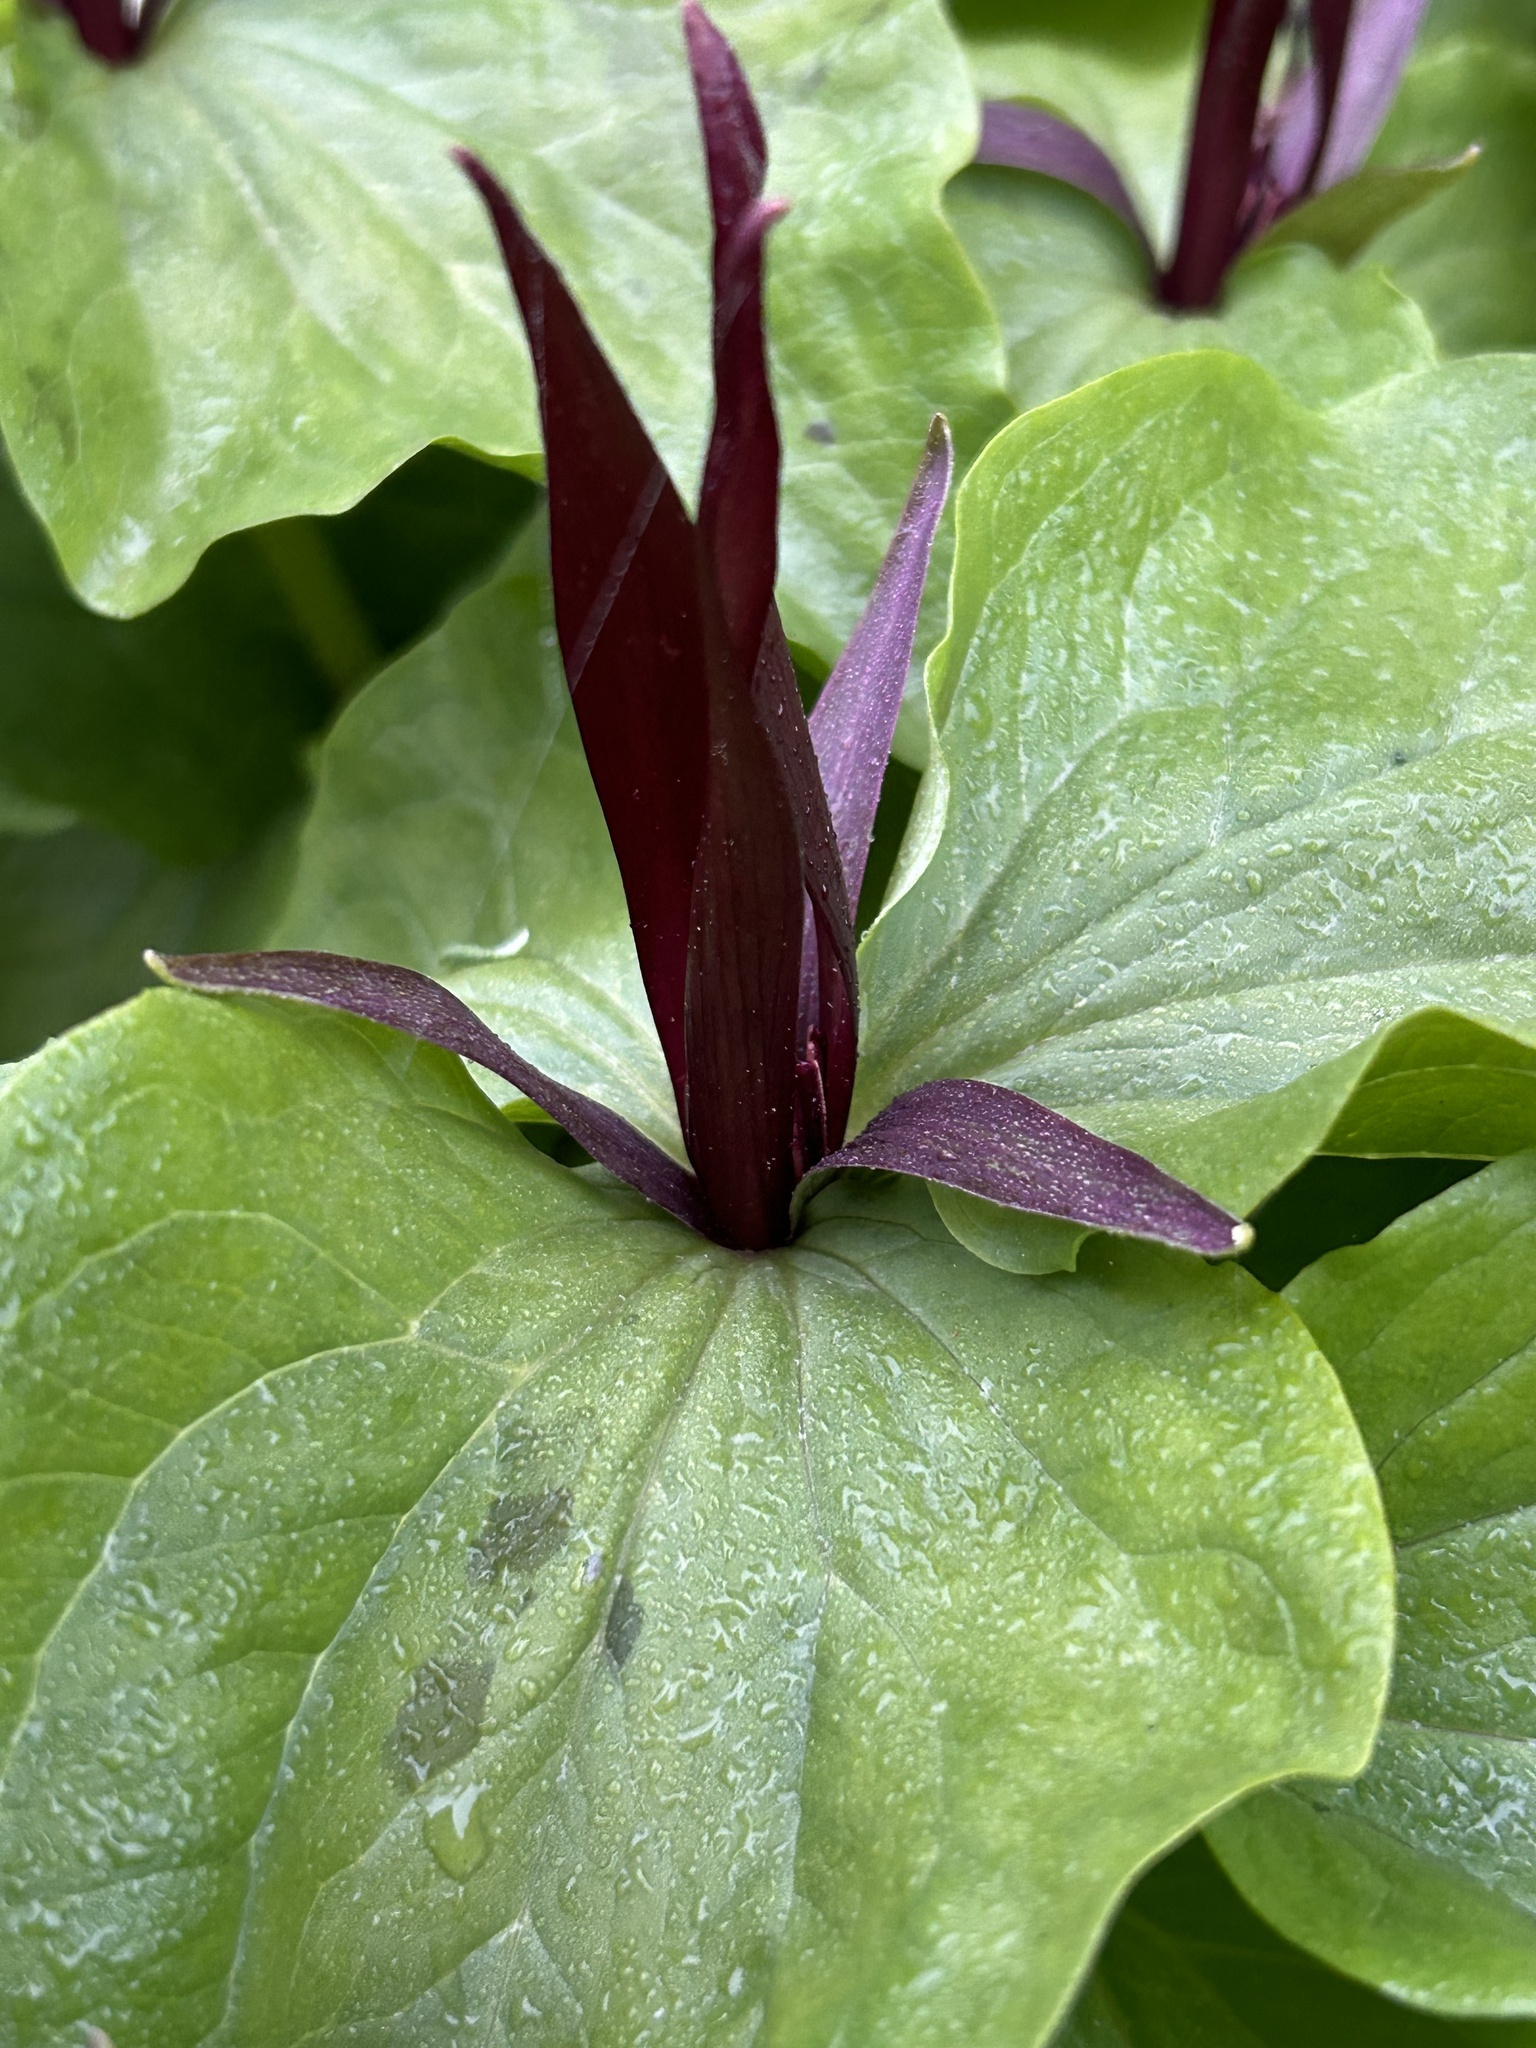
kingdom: Plantae
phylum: Tracheophyta
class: Liliopsida
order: Liliales
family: Melanthiaceae
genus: Trillium
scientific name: Trillium angustipetalum
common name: Narrow-petaled trillium
